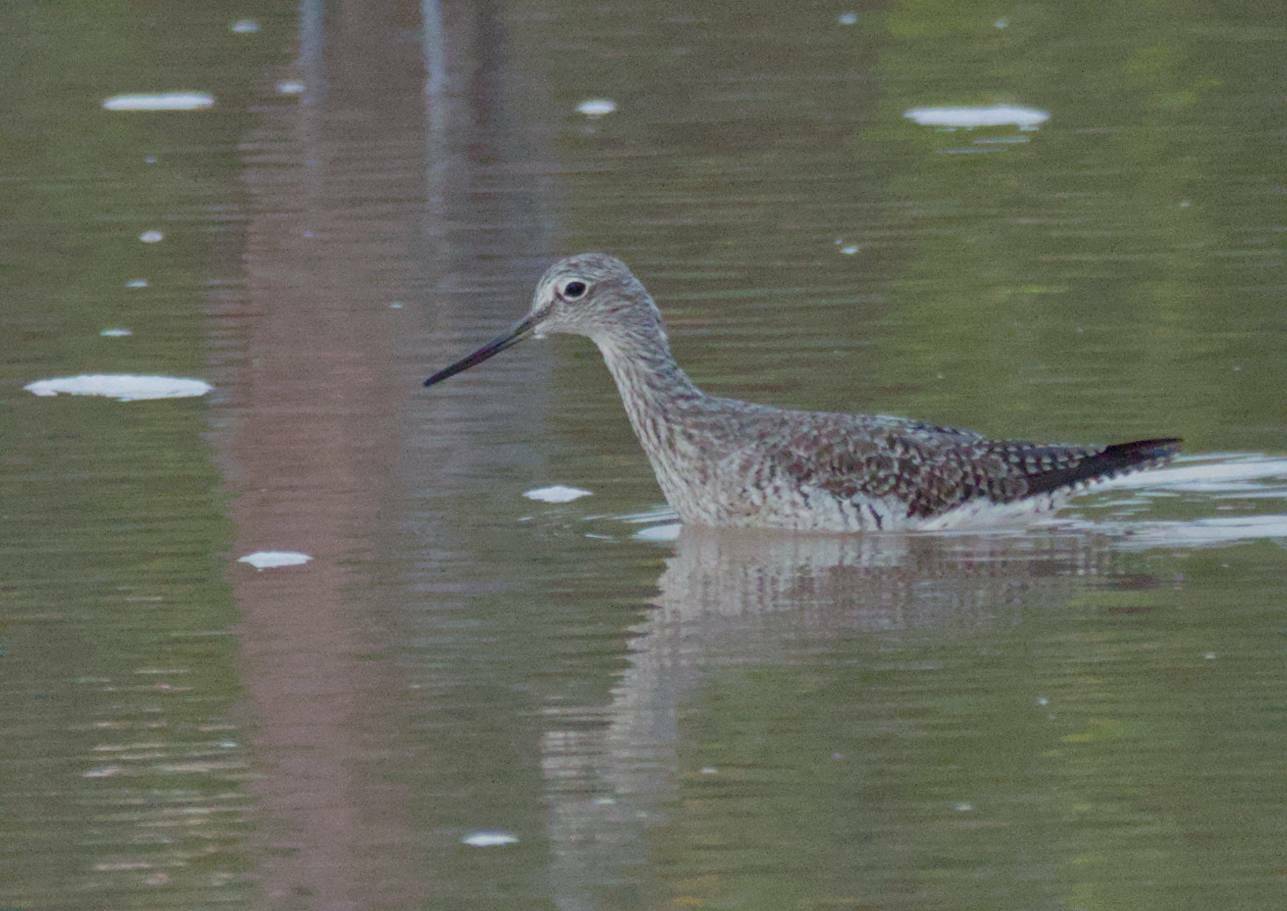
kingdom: Animalia
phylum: Chordata
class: Aves
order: Charadriiformes
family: Scolopacidae
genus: Tringa
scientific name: Tringa melanoleuca
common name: Greater yellowlegs
